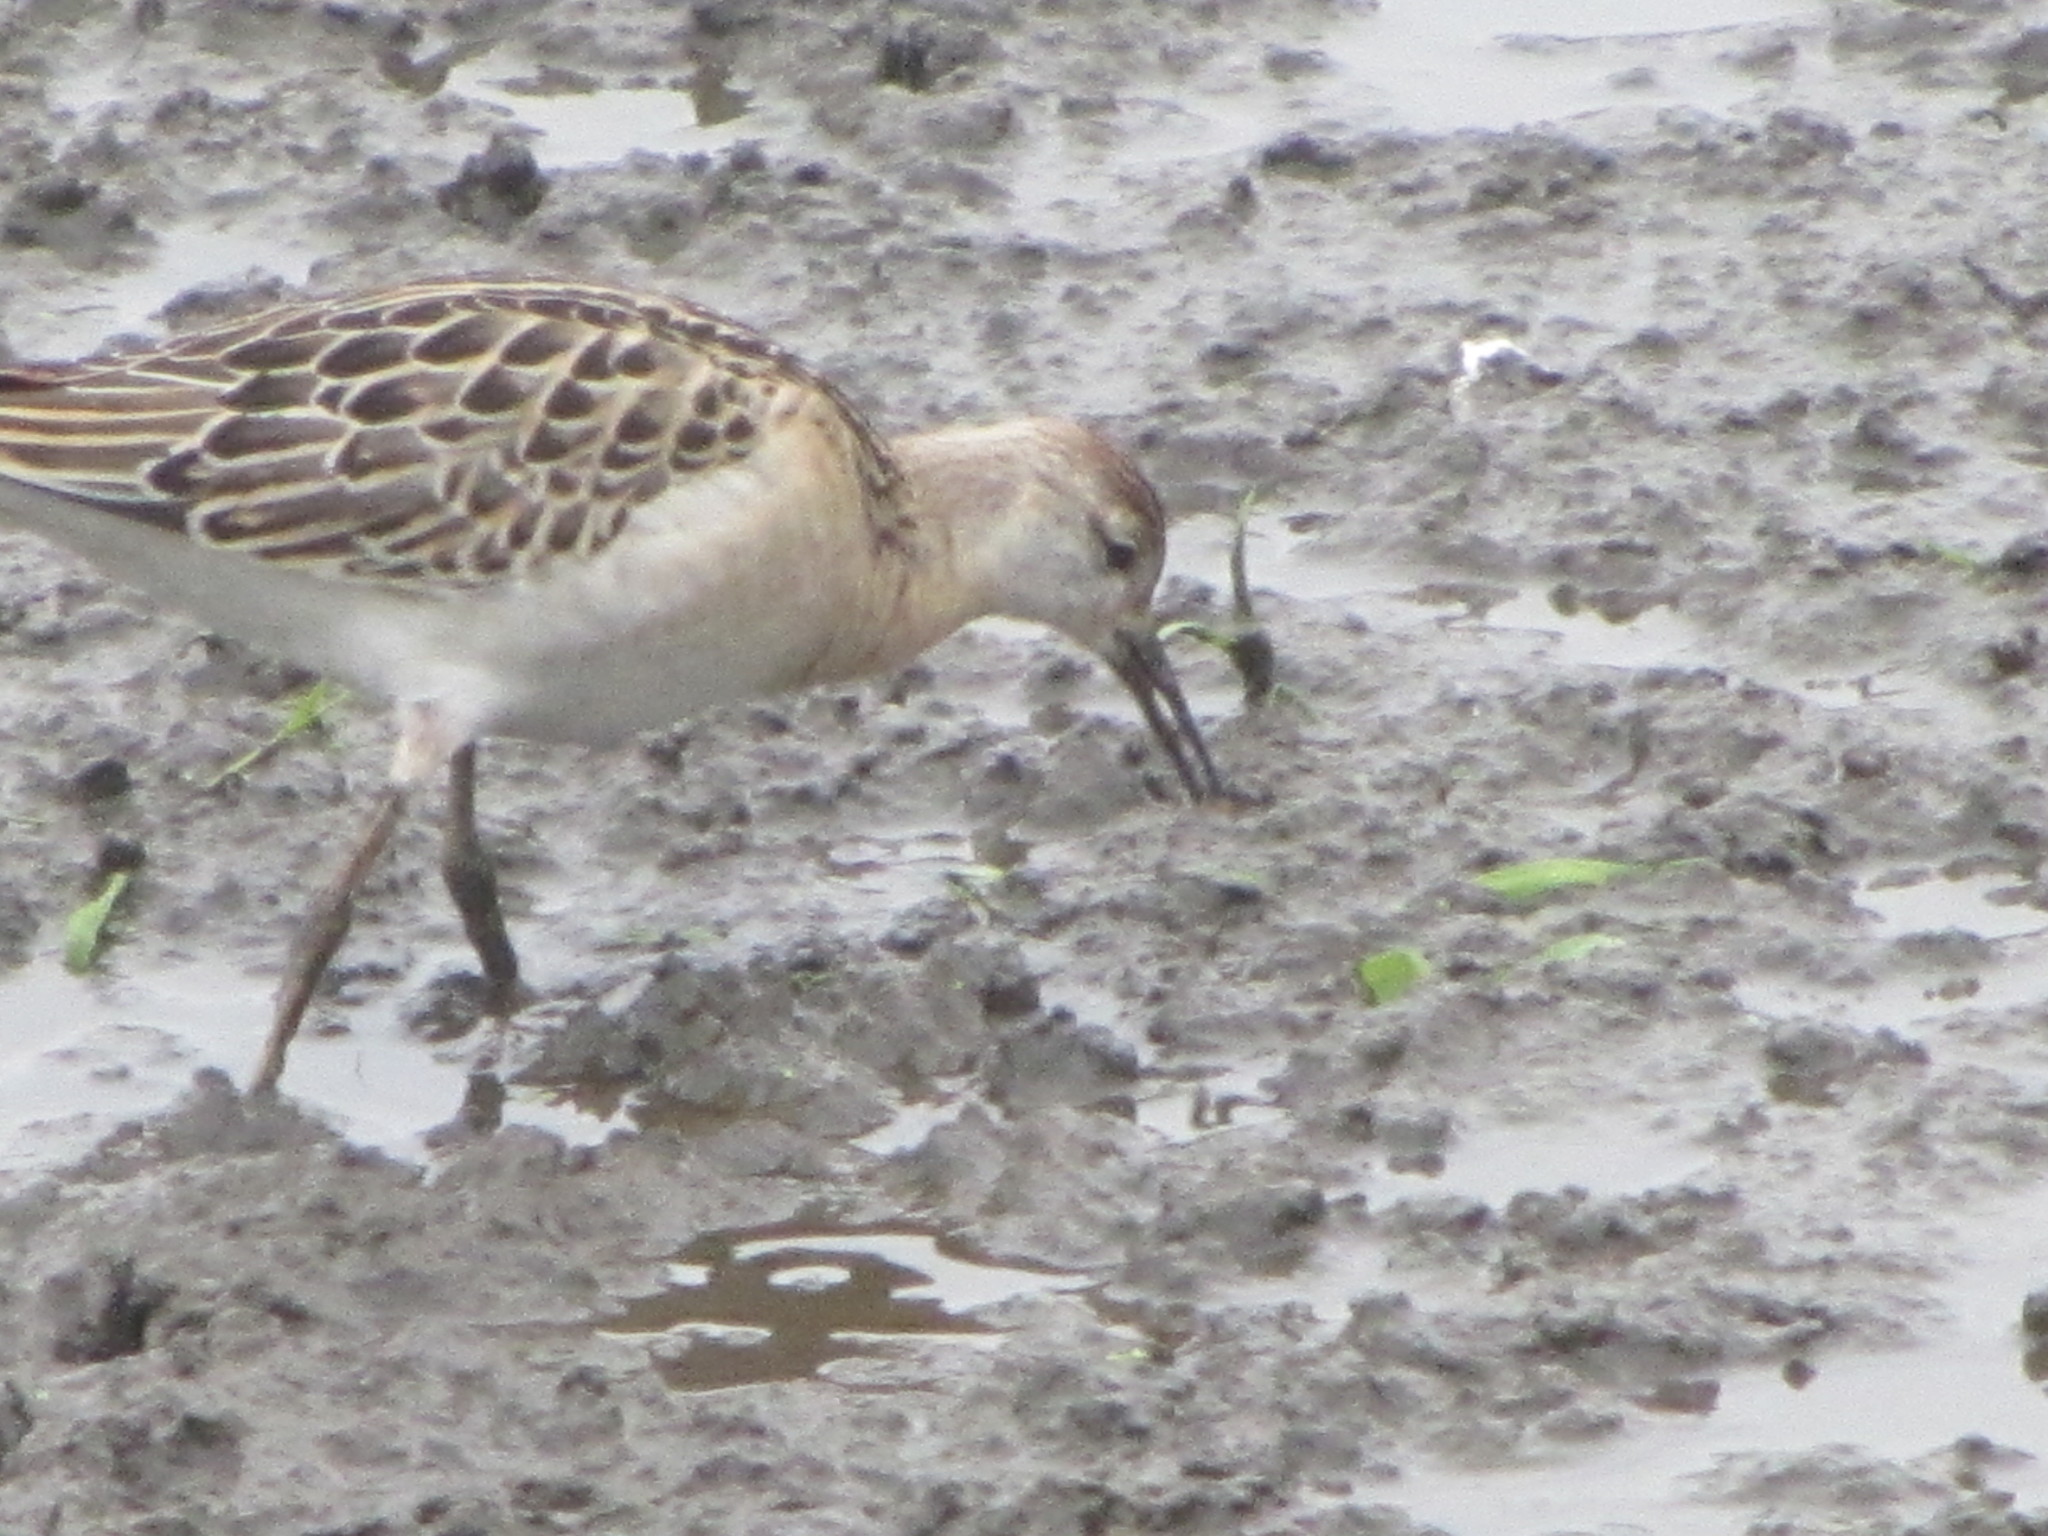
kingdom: Animalia
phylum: Chordata
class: Aves
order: Charadriiformes
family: Scolopacidae
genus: Calidris
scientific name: Calidris pugnax
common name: Ruff
